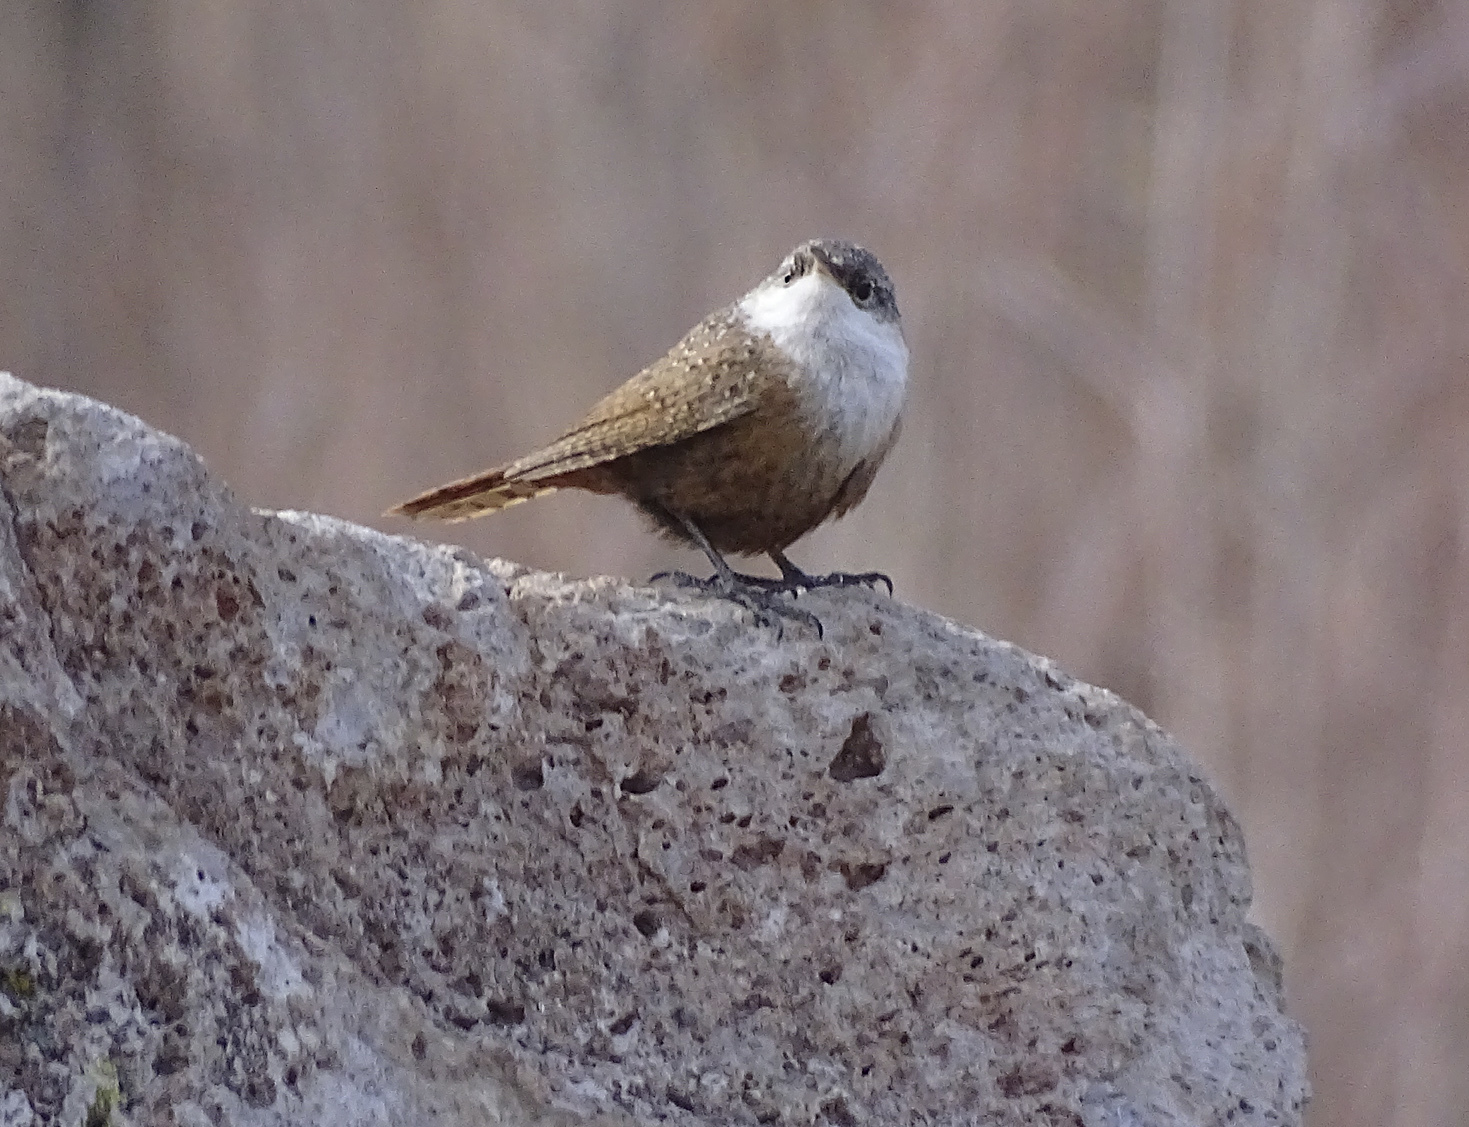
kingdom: Animalia
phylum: Chordata
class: Aves
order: Passeriformes
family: Troglodytidae
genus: Catherpes
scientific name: Catherpes mexicanus
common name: Canyon wren
